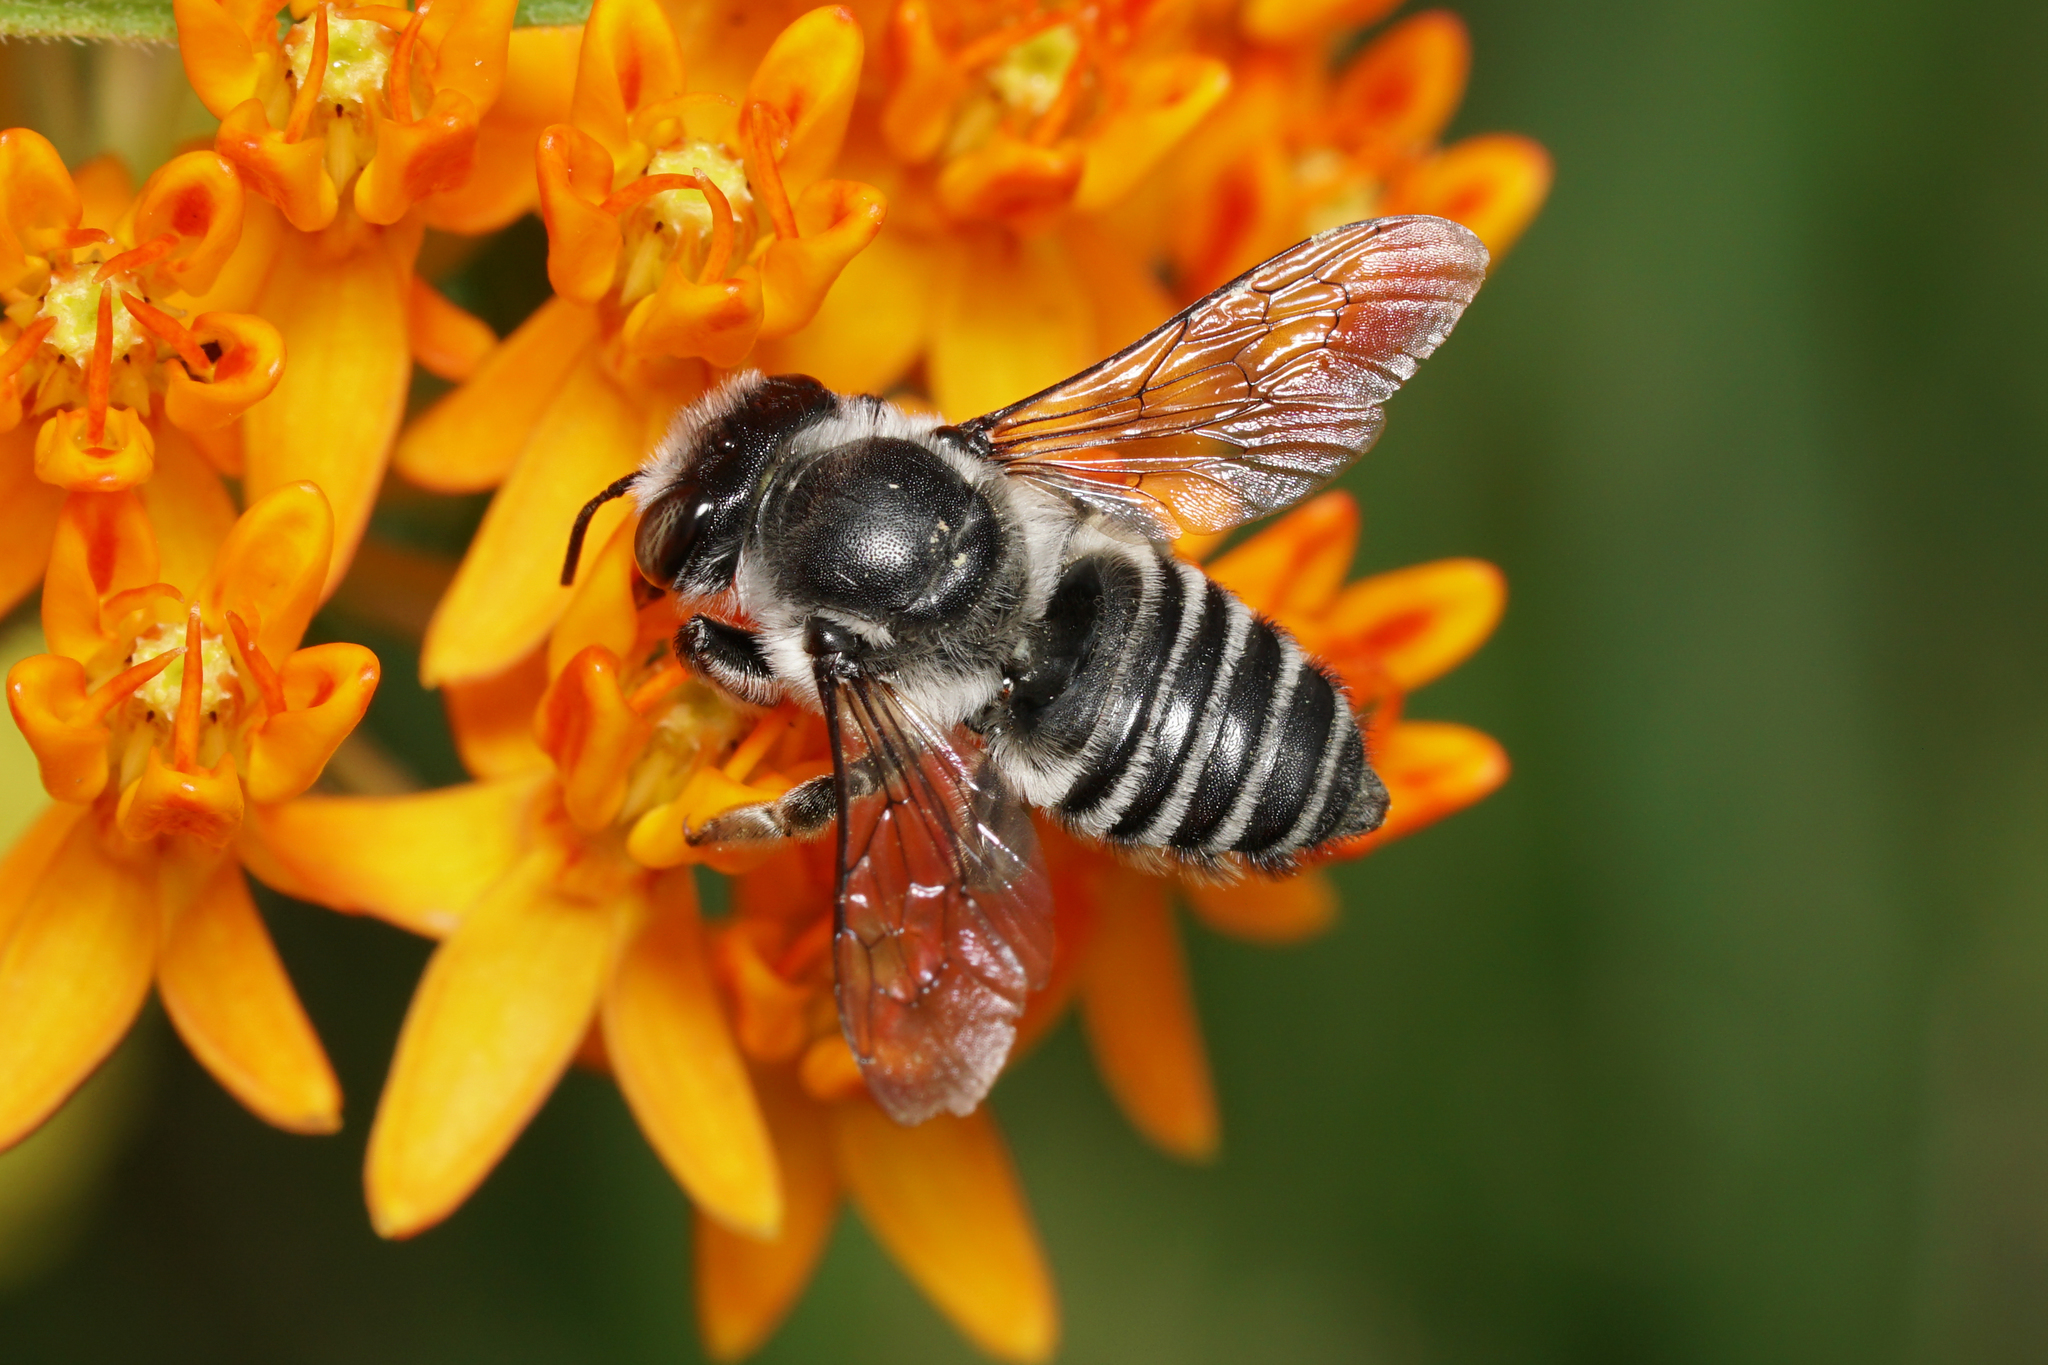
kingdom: Animalia
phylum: Arthropoda
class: Insecta
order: Hymenoptera
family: Megachilidae
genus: Megachile
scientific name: Megachile texana
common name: Texas leafcutter
